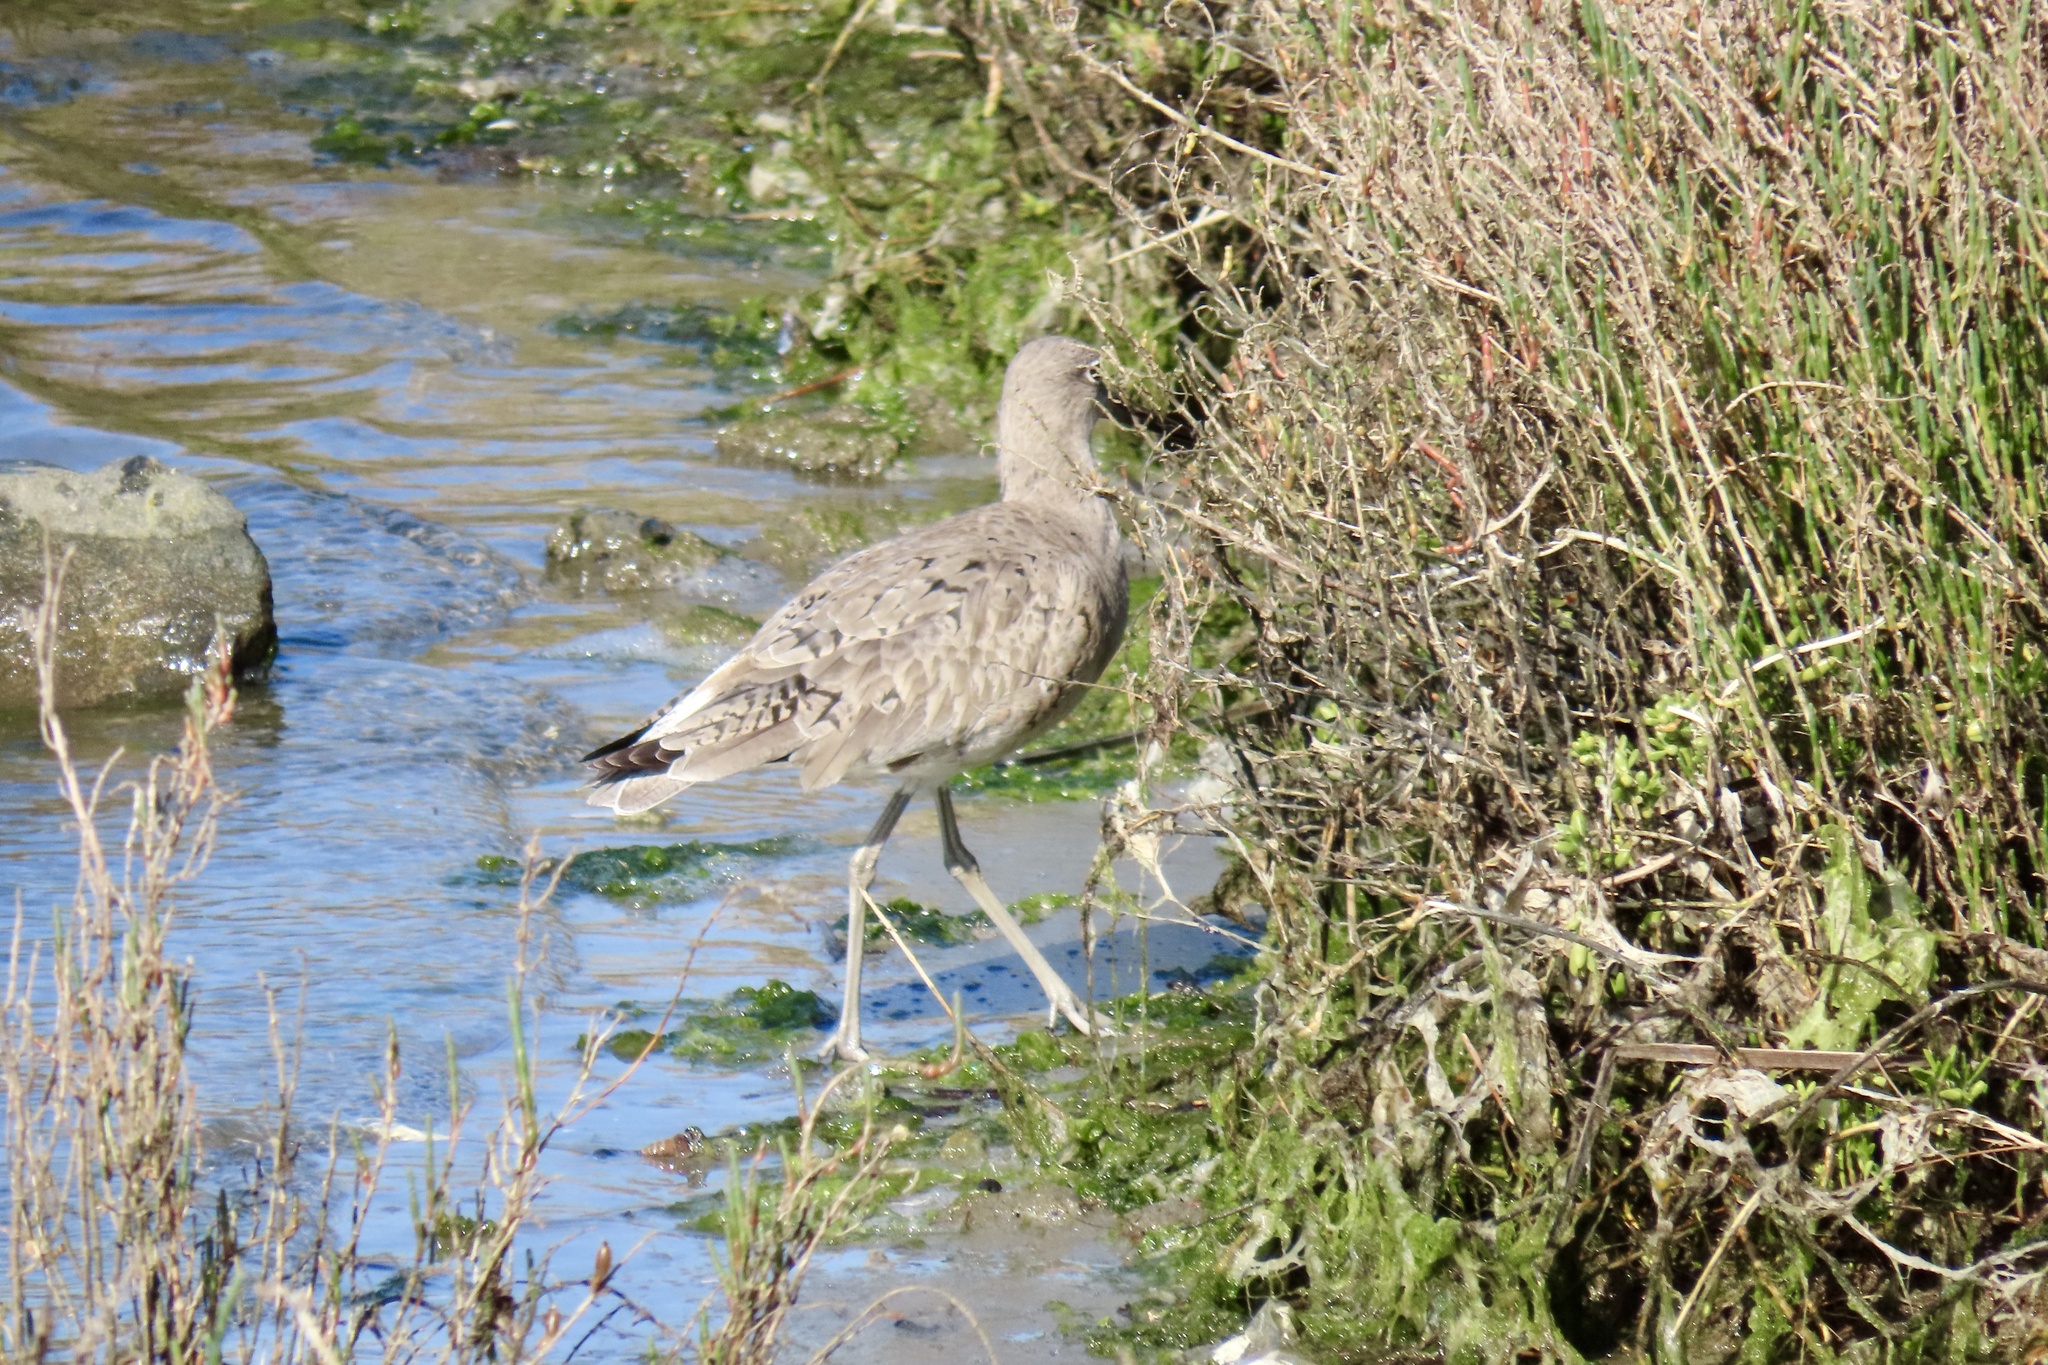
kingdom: Animalia
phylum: Chordata
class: Aves
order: Charadriiformes
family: Scolopacidae
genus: Tringa
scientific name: Tringa semipalmata
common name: Willet
